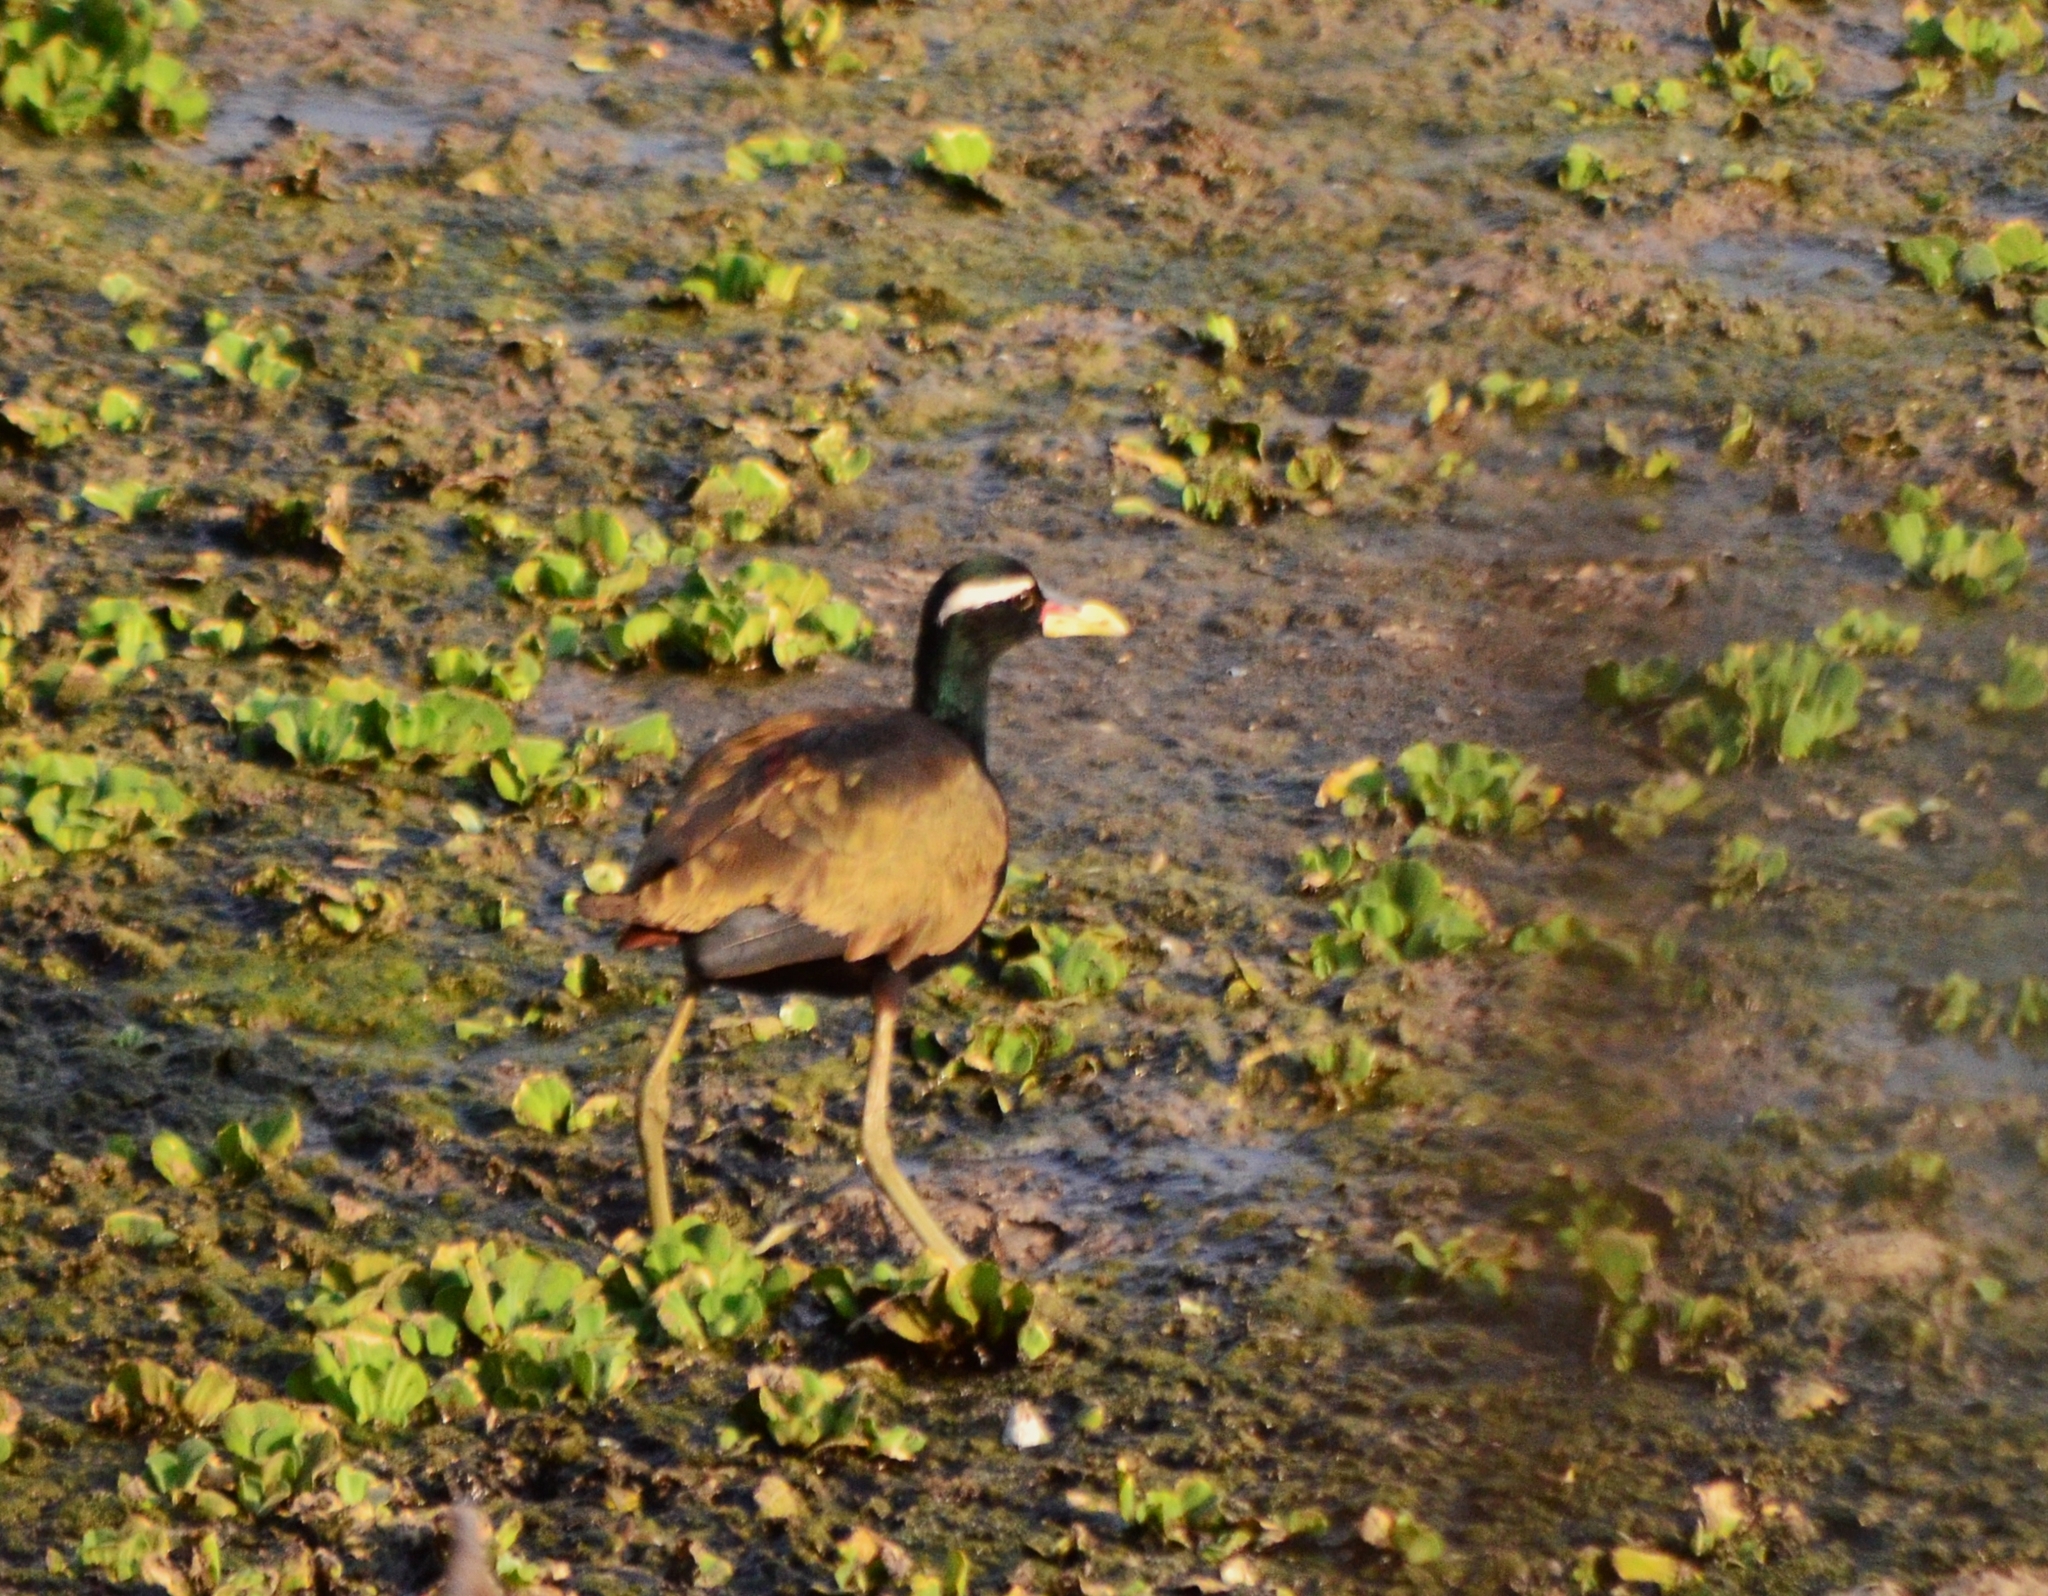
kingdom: Animalia
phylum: Chordata
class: Aves
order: Charadriiformes
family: Jacanidae
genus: Metopidius
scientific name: Metopidius indicus
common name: Bronze-winged jacana
